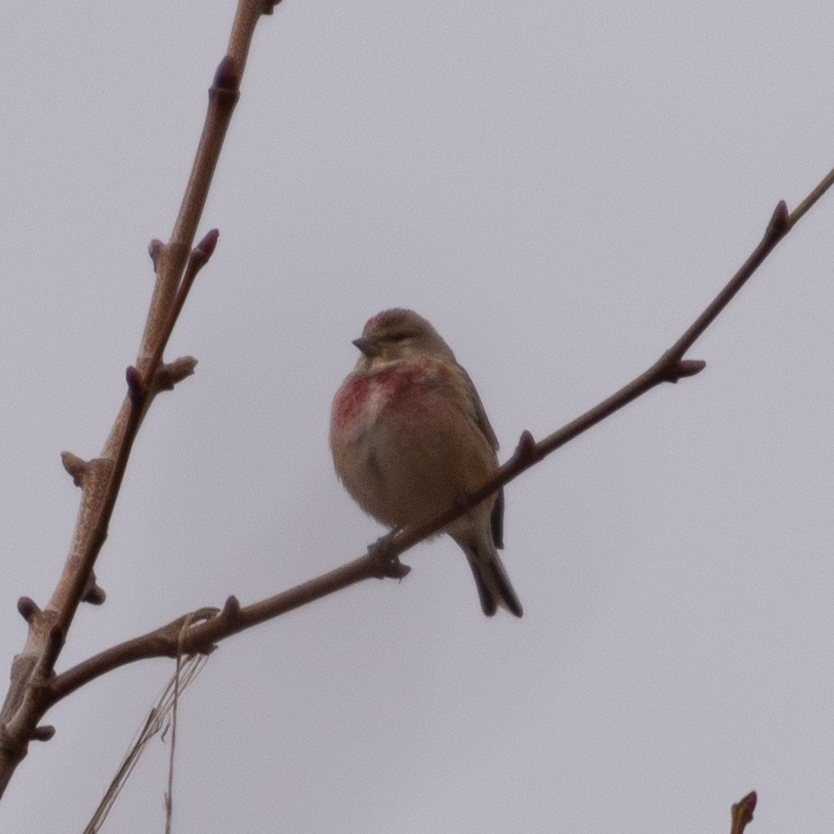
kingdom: Animalia
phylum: Chordata
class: Aves
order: Passeriformes
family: Fringillidae
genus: Linaria
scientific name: Linaria cannabina
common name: Common linnet
